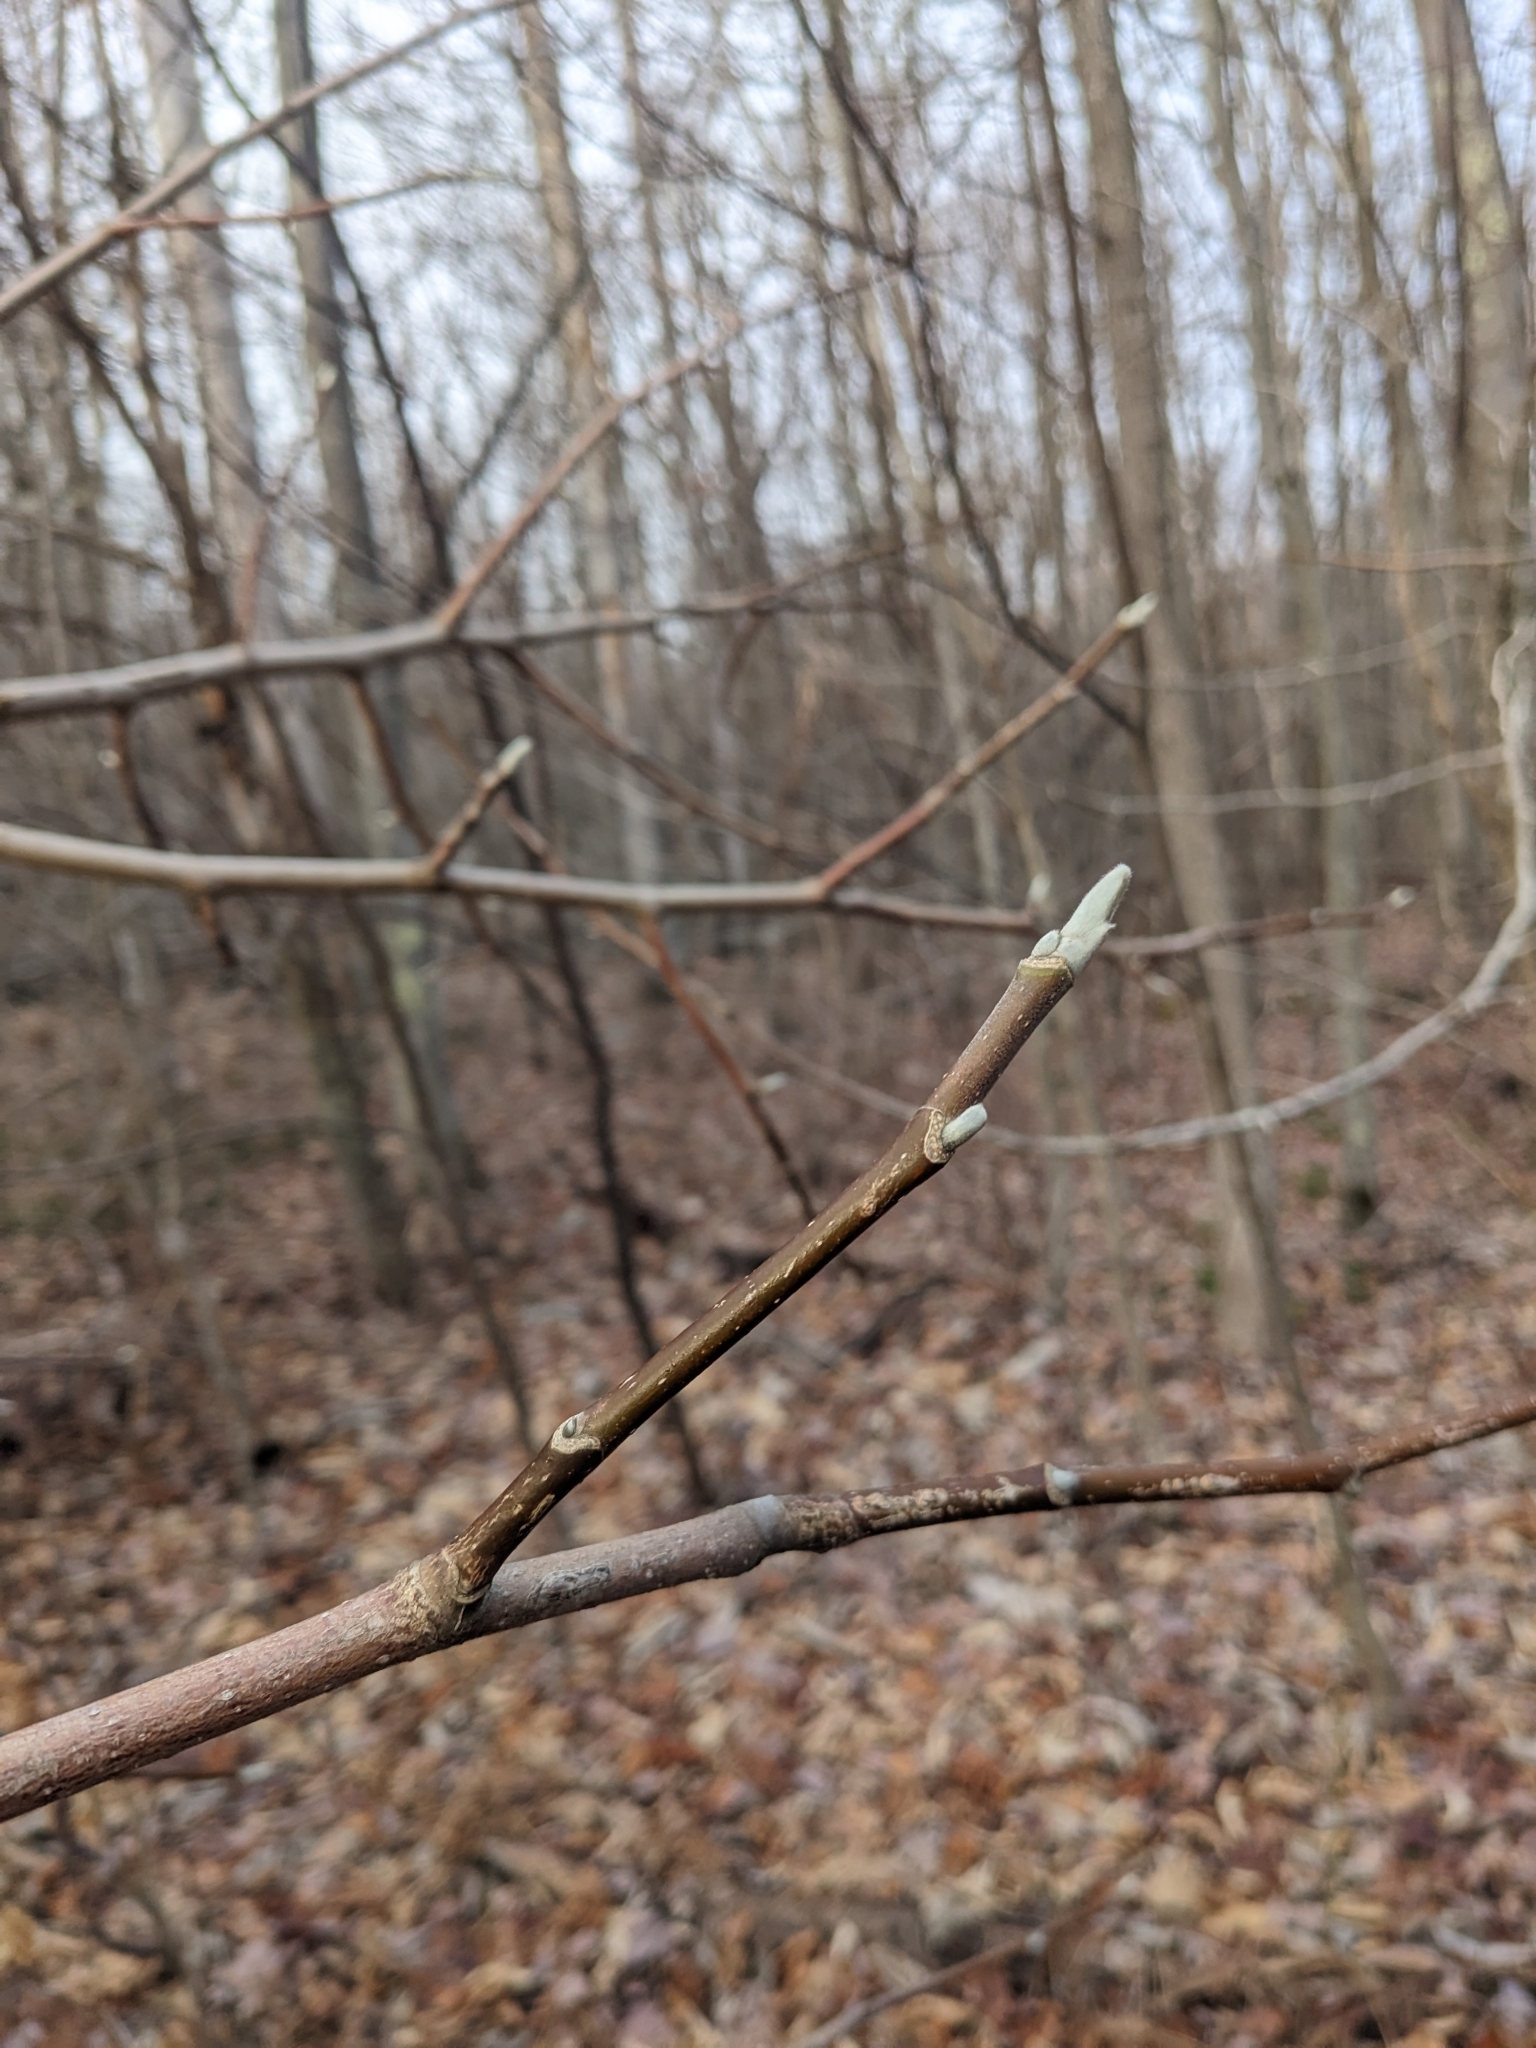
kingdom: Plantae
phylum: Tracheophyta
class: Magnoliopsida
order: Magnoliales
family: Magnoliaceae
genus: Magnolia
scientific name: Magnolia acuminata
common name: Cucumber magnolia
